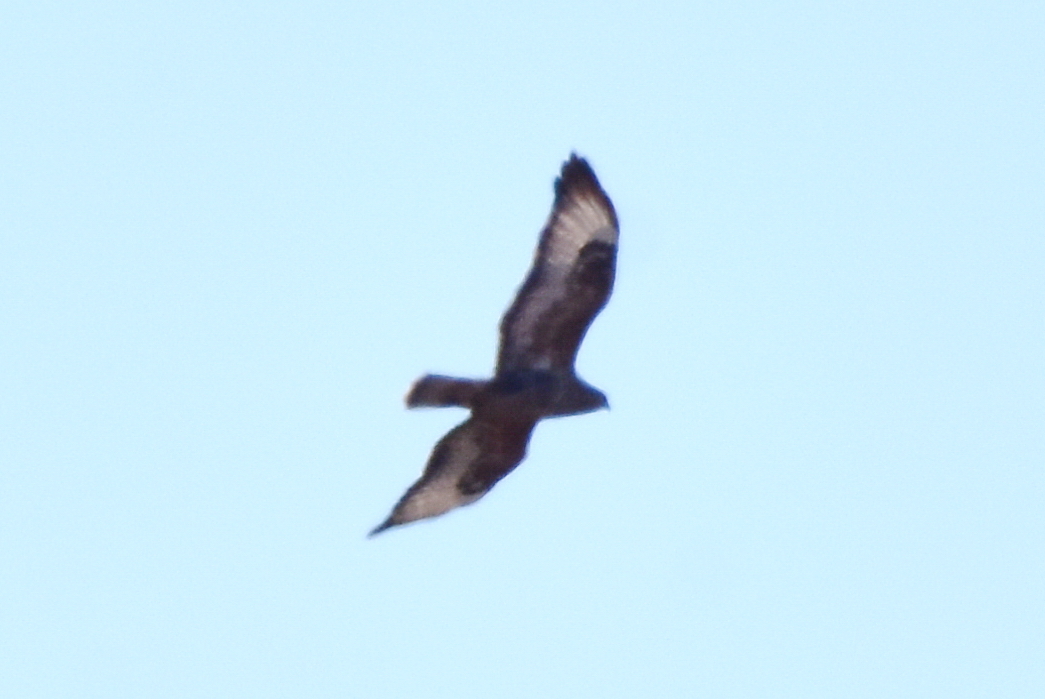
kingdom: Animalia
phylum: Chordata
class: Aves
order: Accipitriformes
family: Accipitridae
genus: Buteo
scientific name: Buteo buteo
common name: Common buzzard
